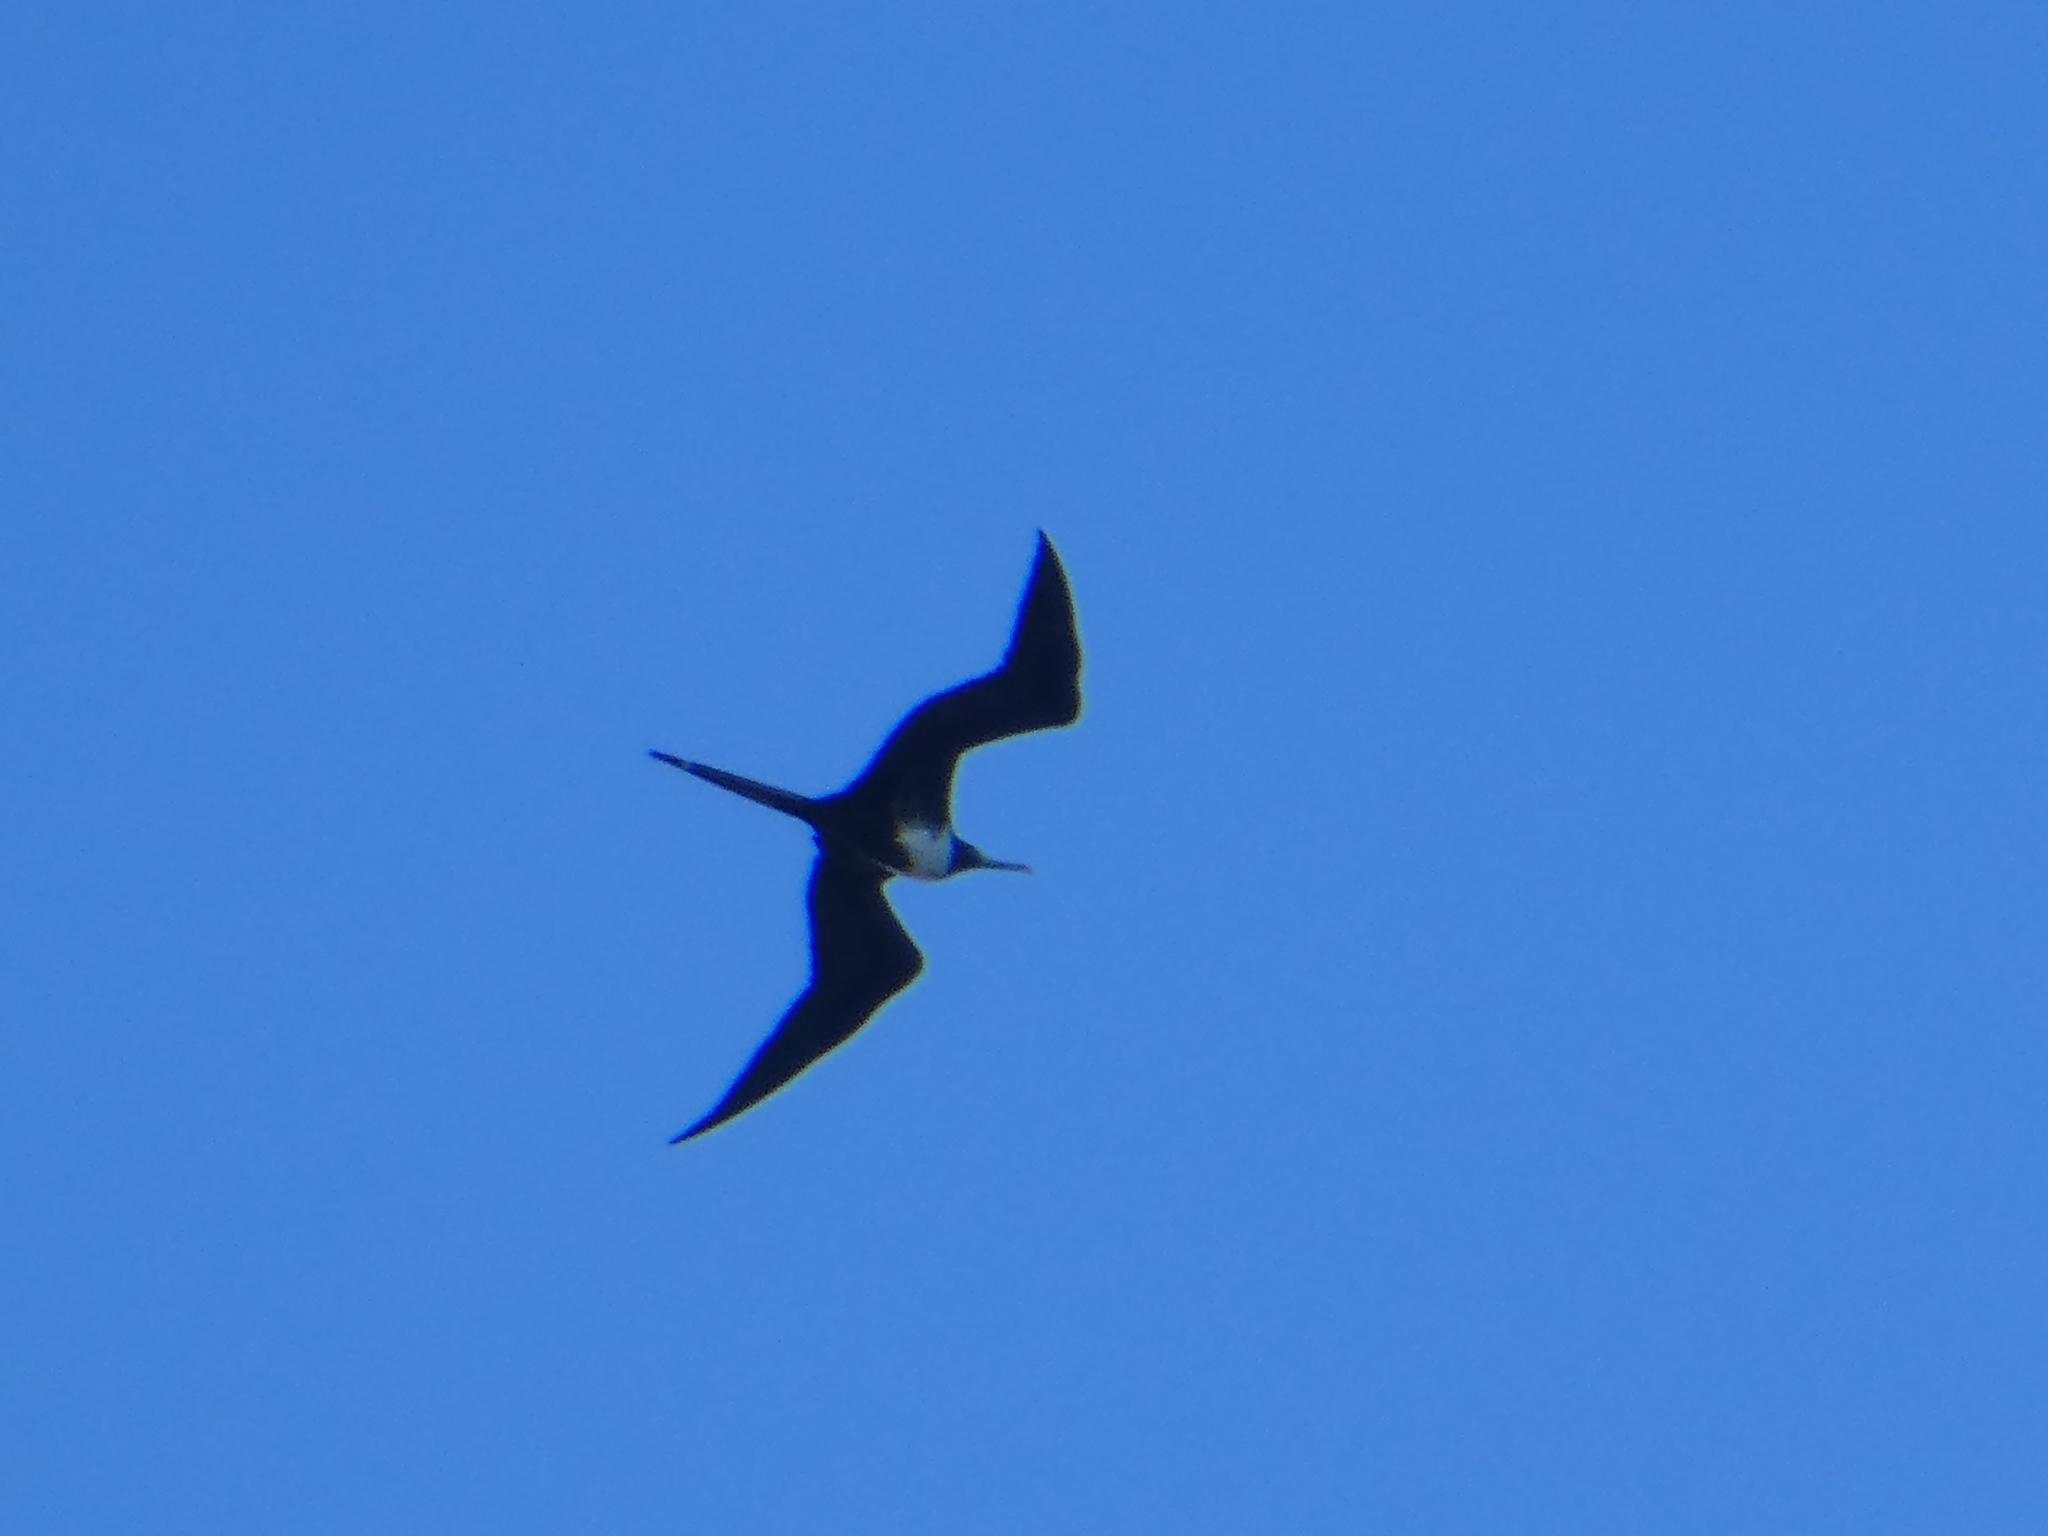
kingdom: Animalia
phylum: Chordata
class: Aves
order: Suliformes
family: Fregatidae
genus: Fregata
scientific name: Fregata magnificens
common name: Magnificent frigatebird
